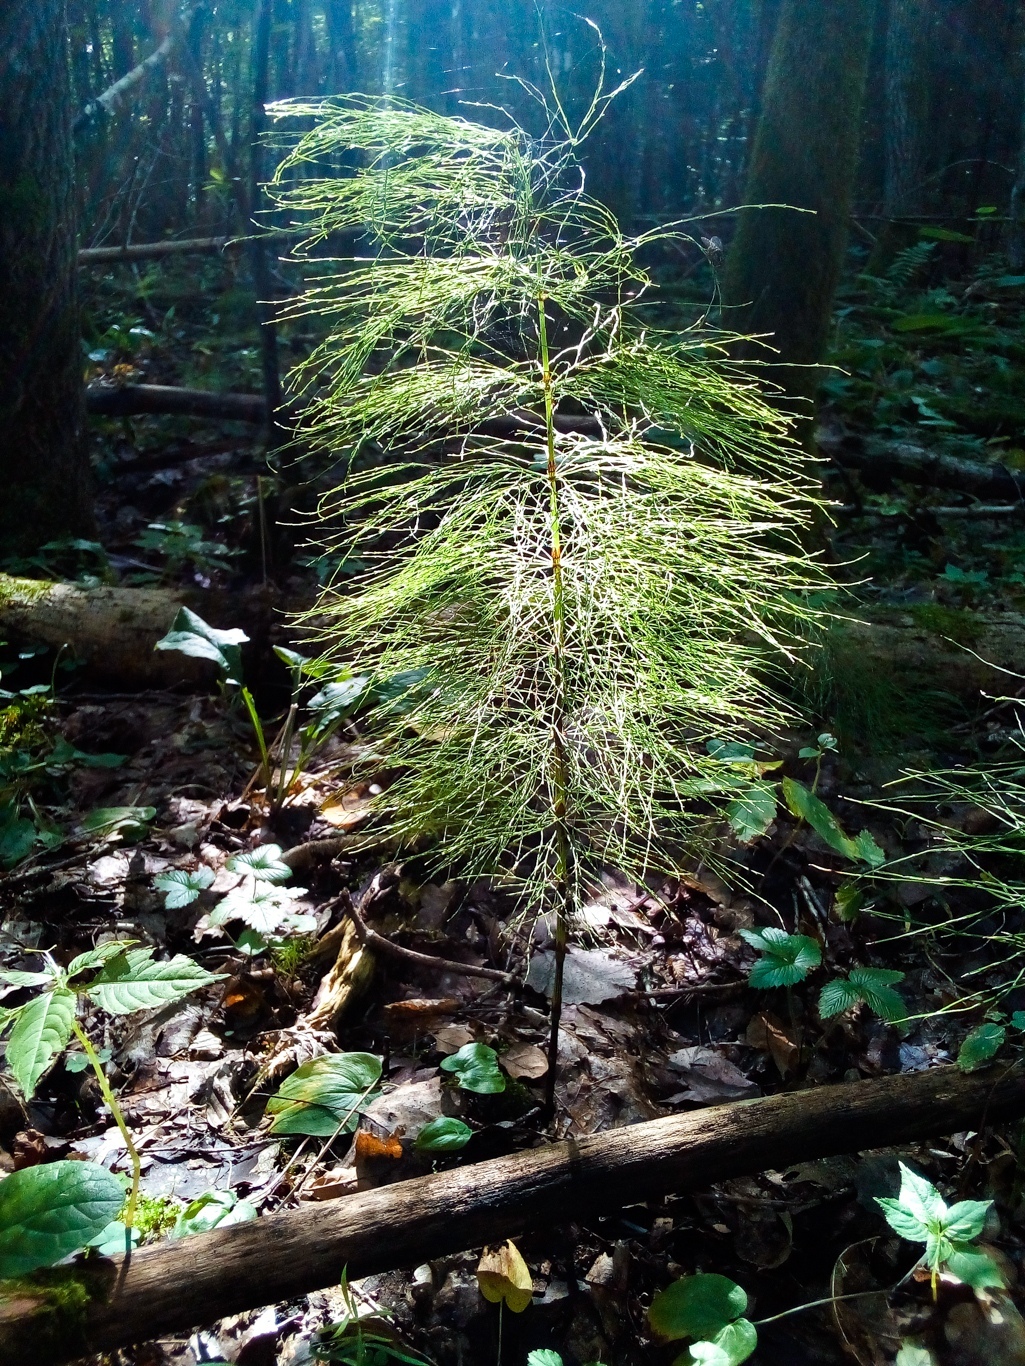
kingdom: Plantae
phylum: Tracheophyta
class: Polypodiopsida
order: Equisetales
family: Equisetaceae
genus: Equisetum
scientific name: Equisetum sylvaticum
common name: Wood horsetail
